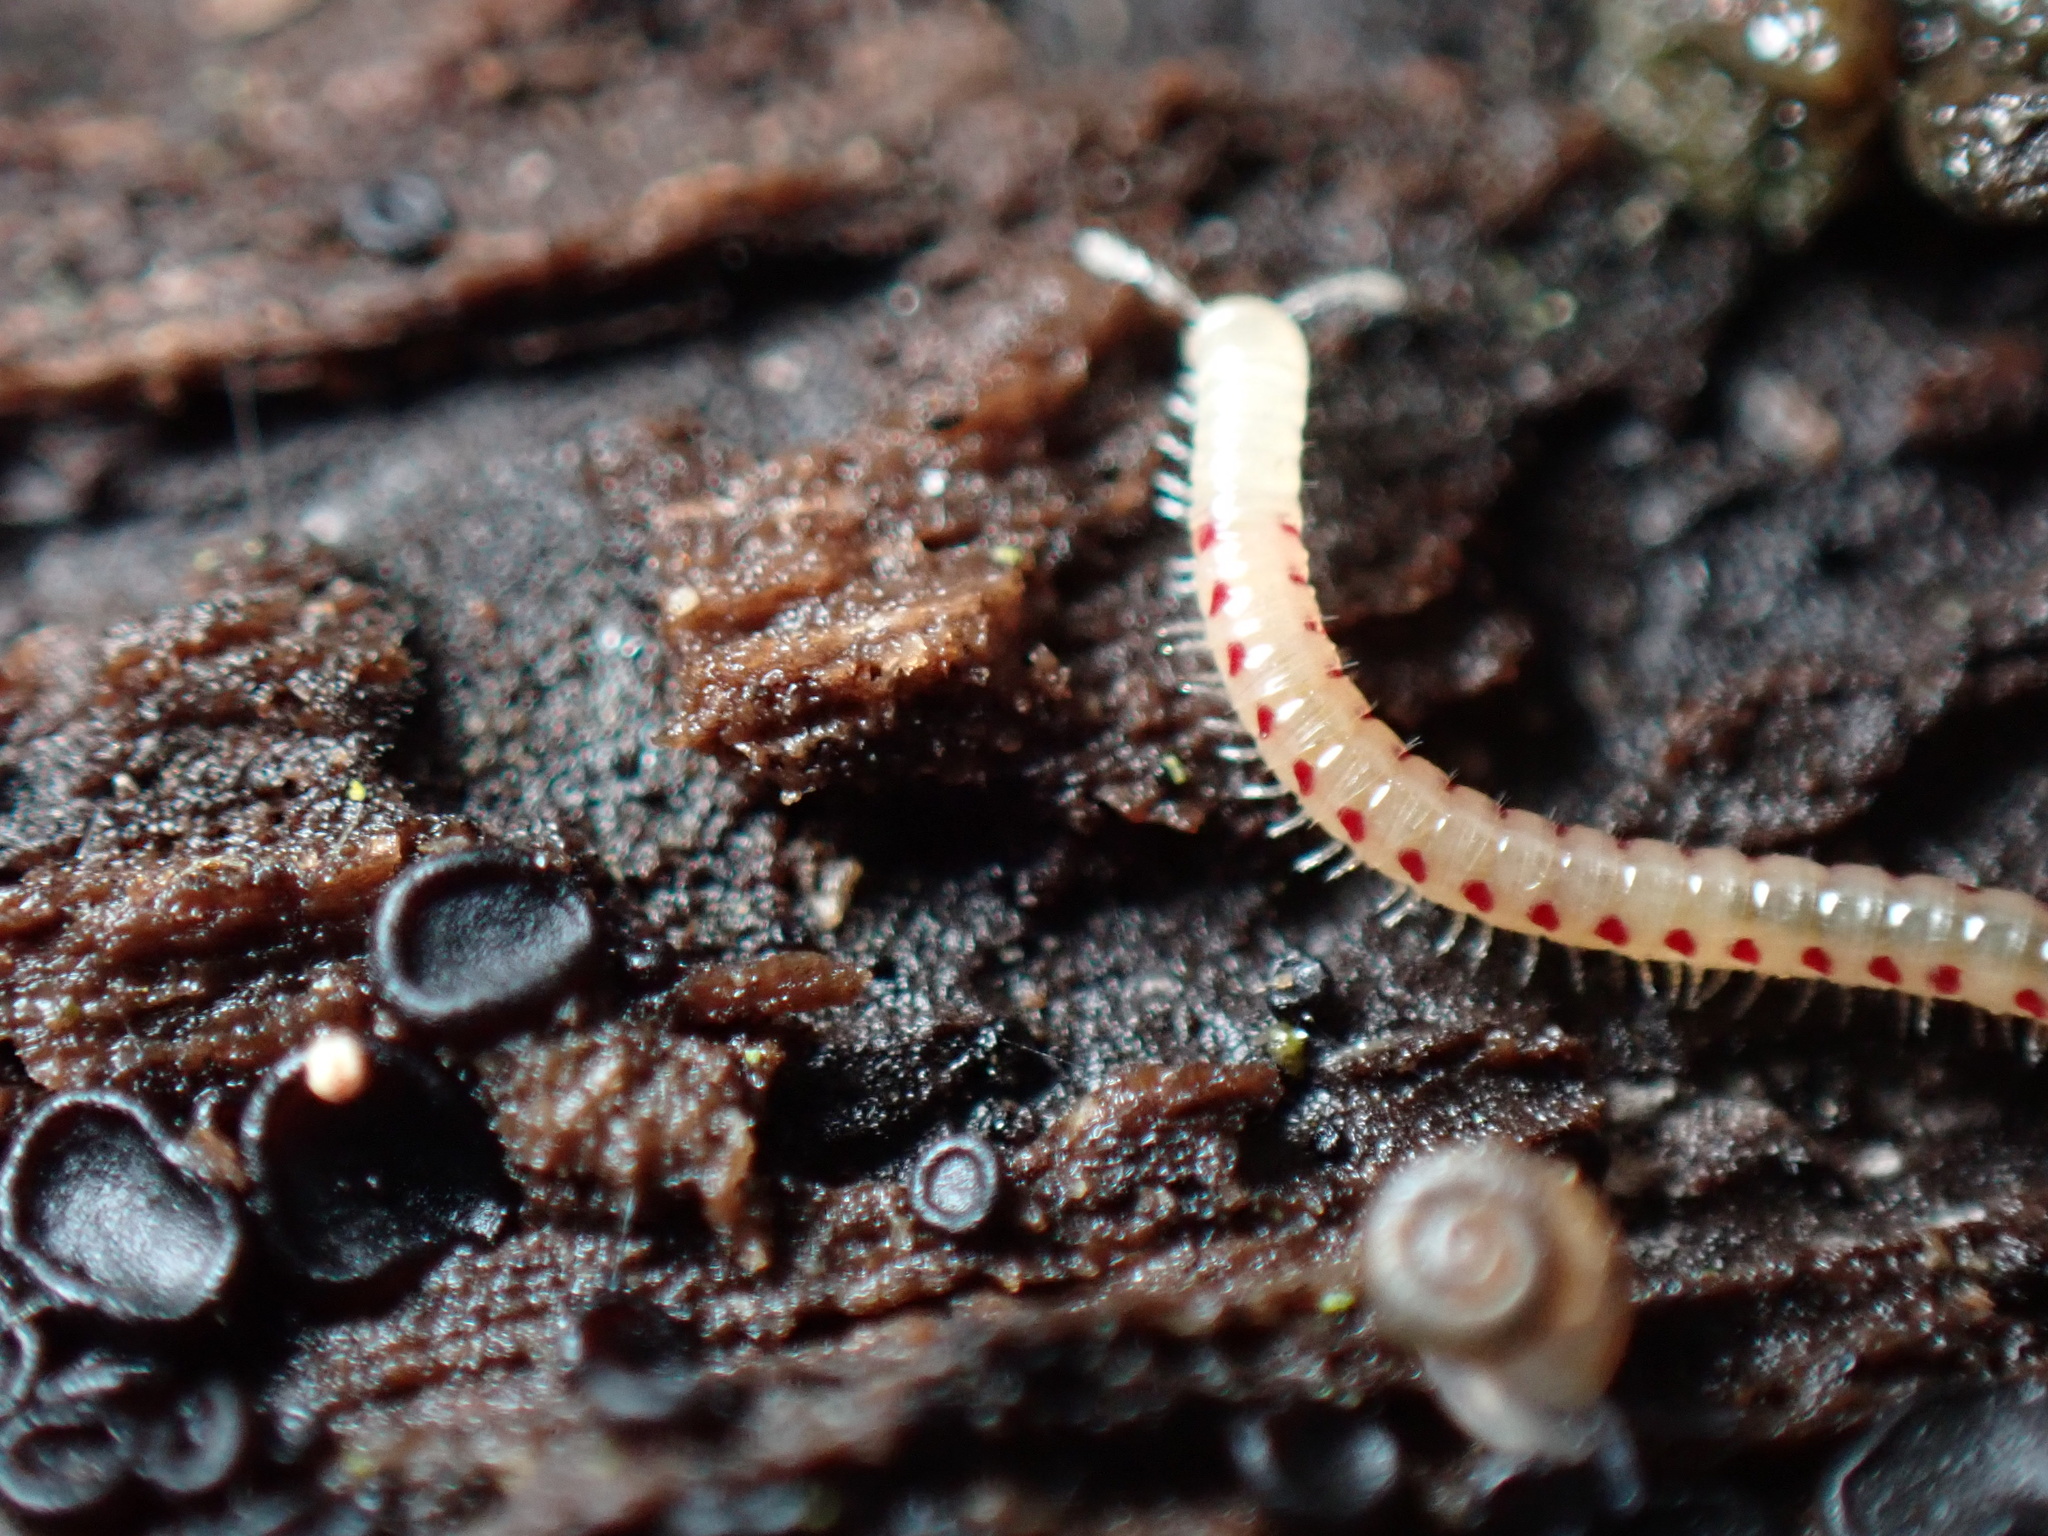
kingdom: Animalia
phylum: Arthropoda
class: Diplopoda
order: Julida
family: Blaniulidae
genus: Blaniulus
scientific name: Blaniulus guttulatus
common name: Spotted snake millipede
